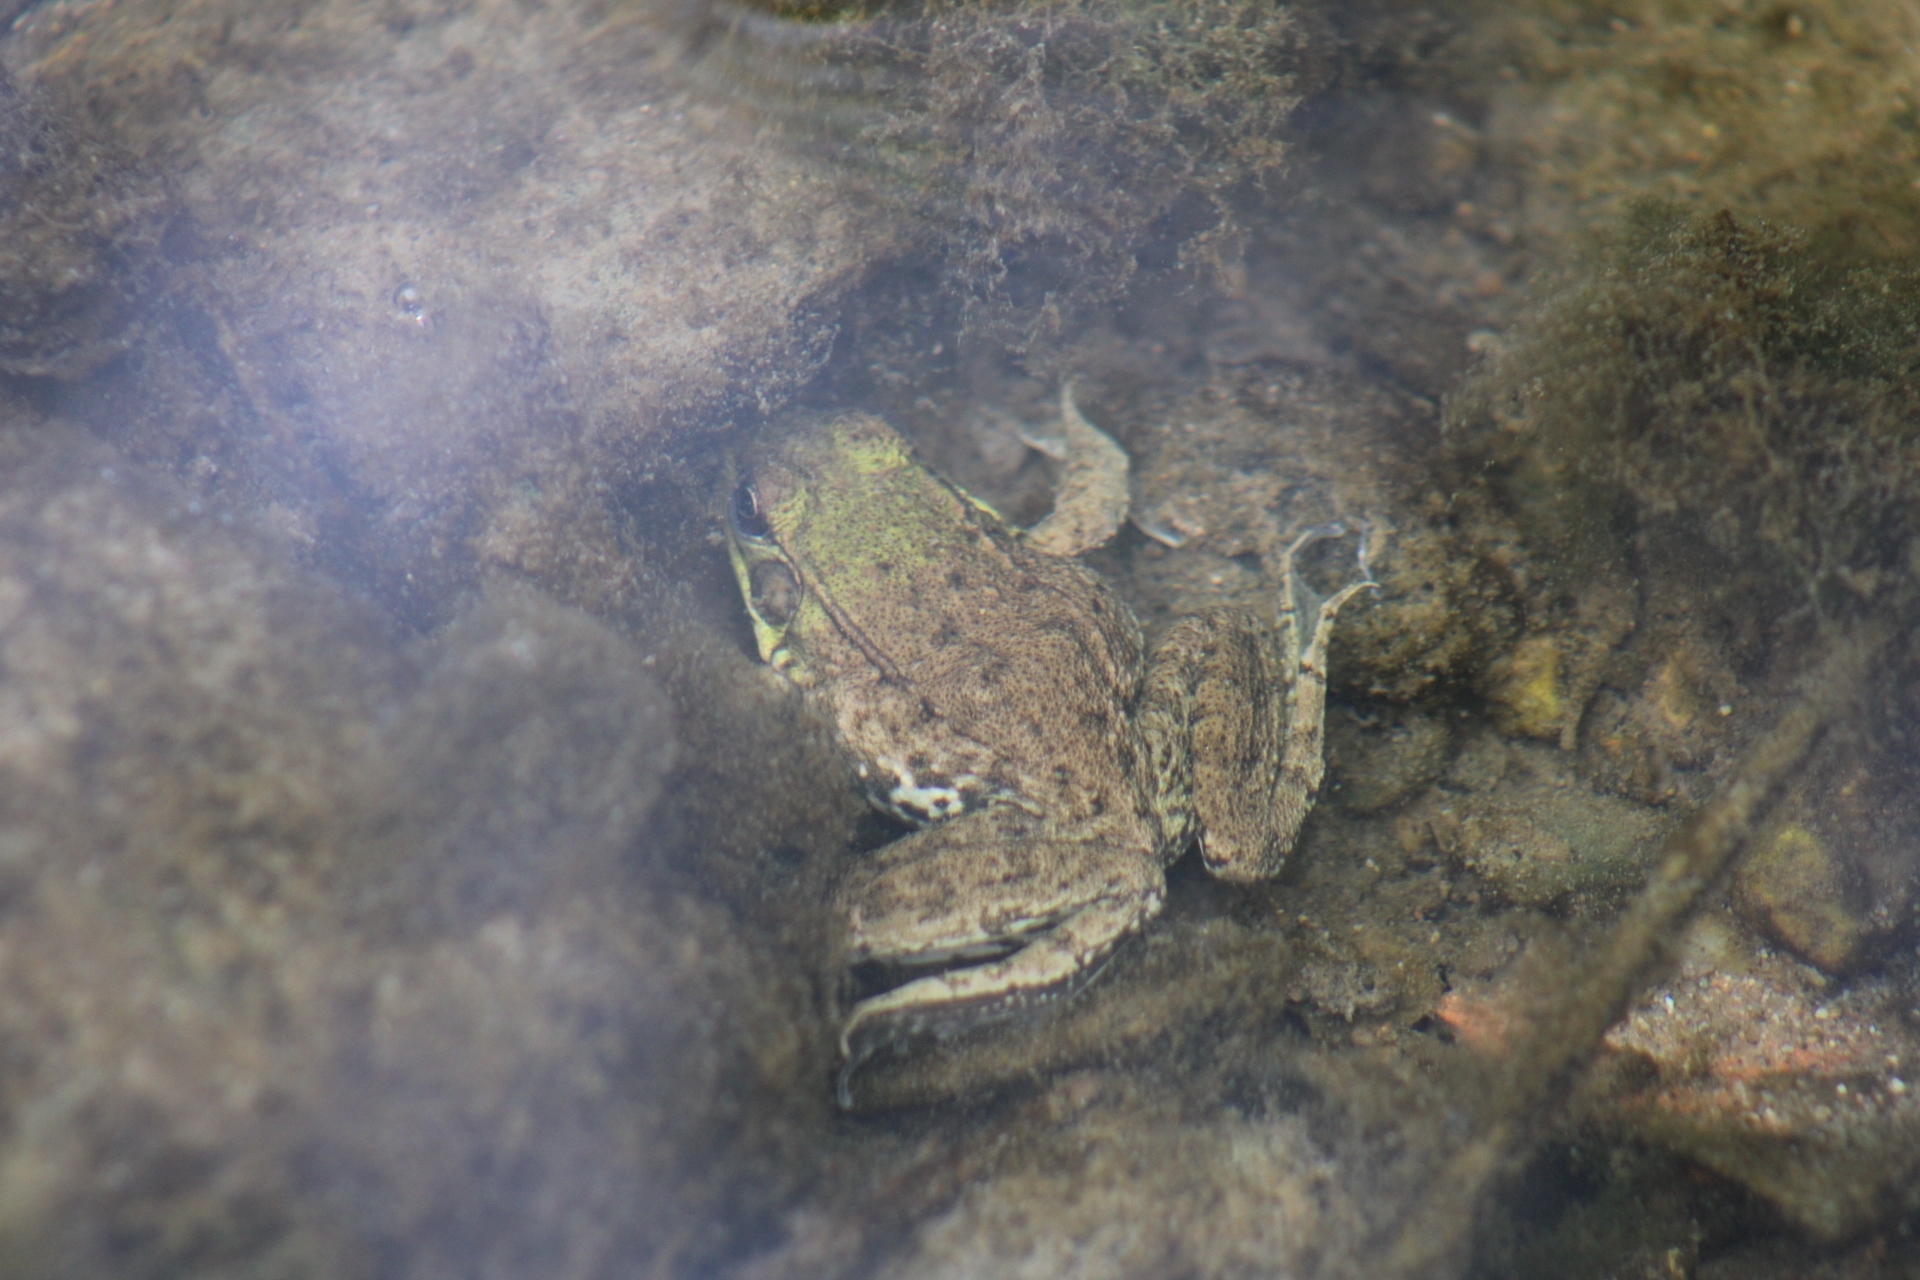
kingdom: Animalia
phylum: Chordata
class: Amphibia
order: Anura
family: Ranidae
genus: Lithobates
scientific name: Lithobates clamitans
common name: Green frog
